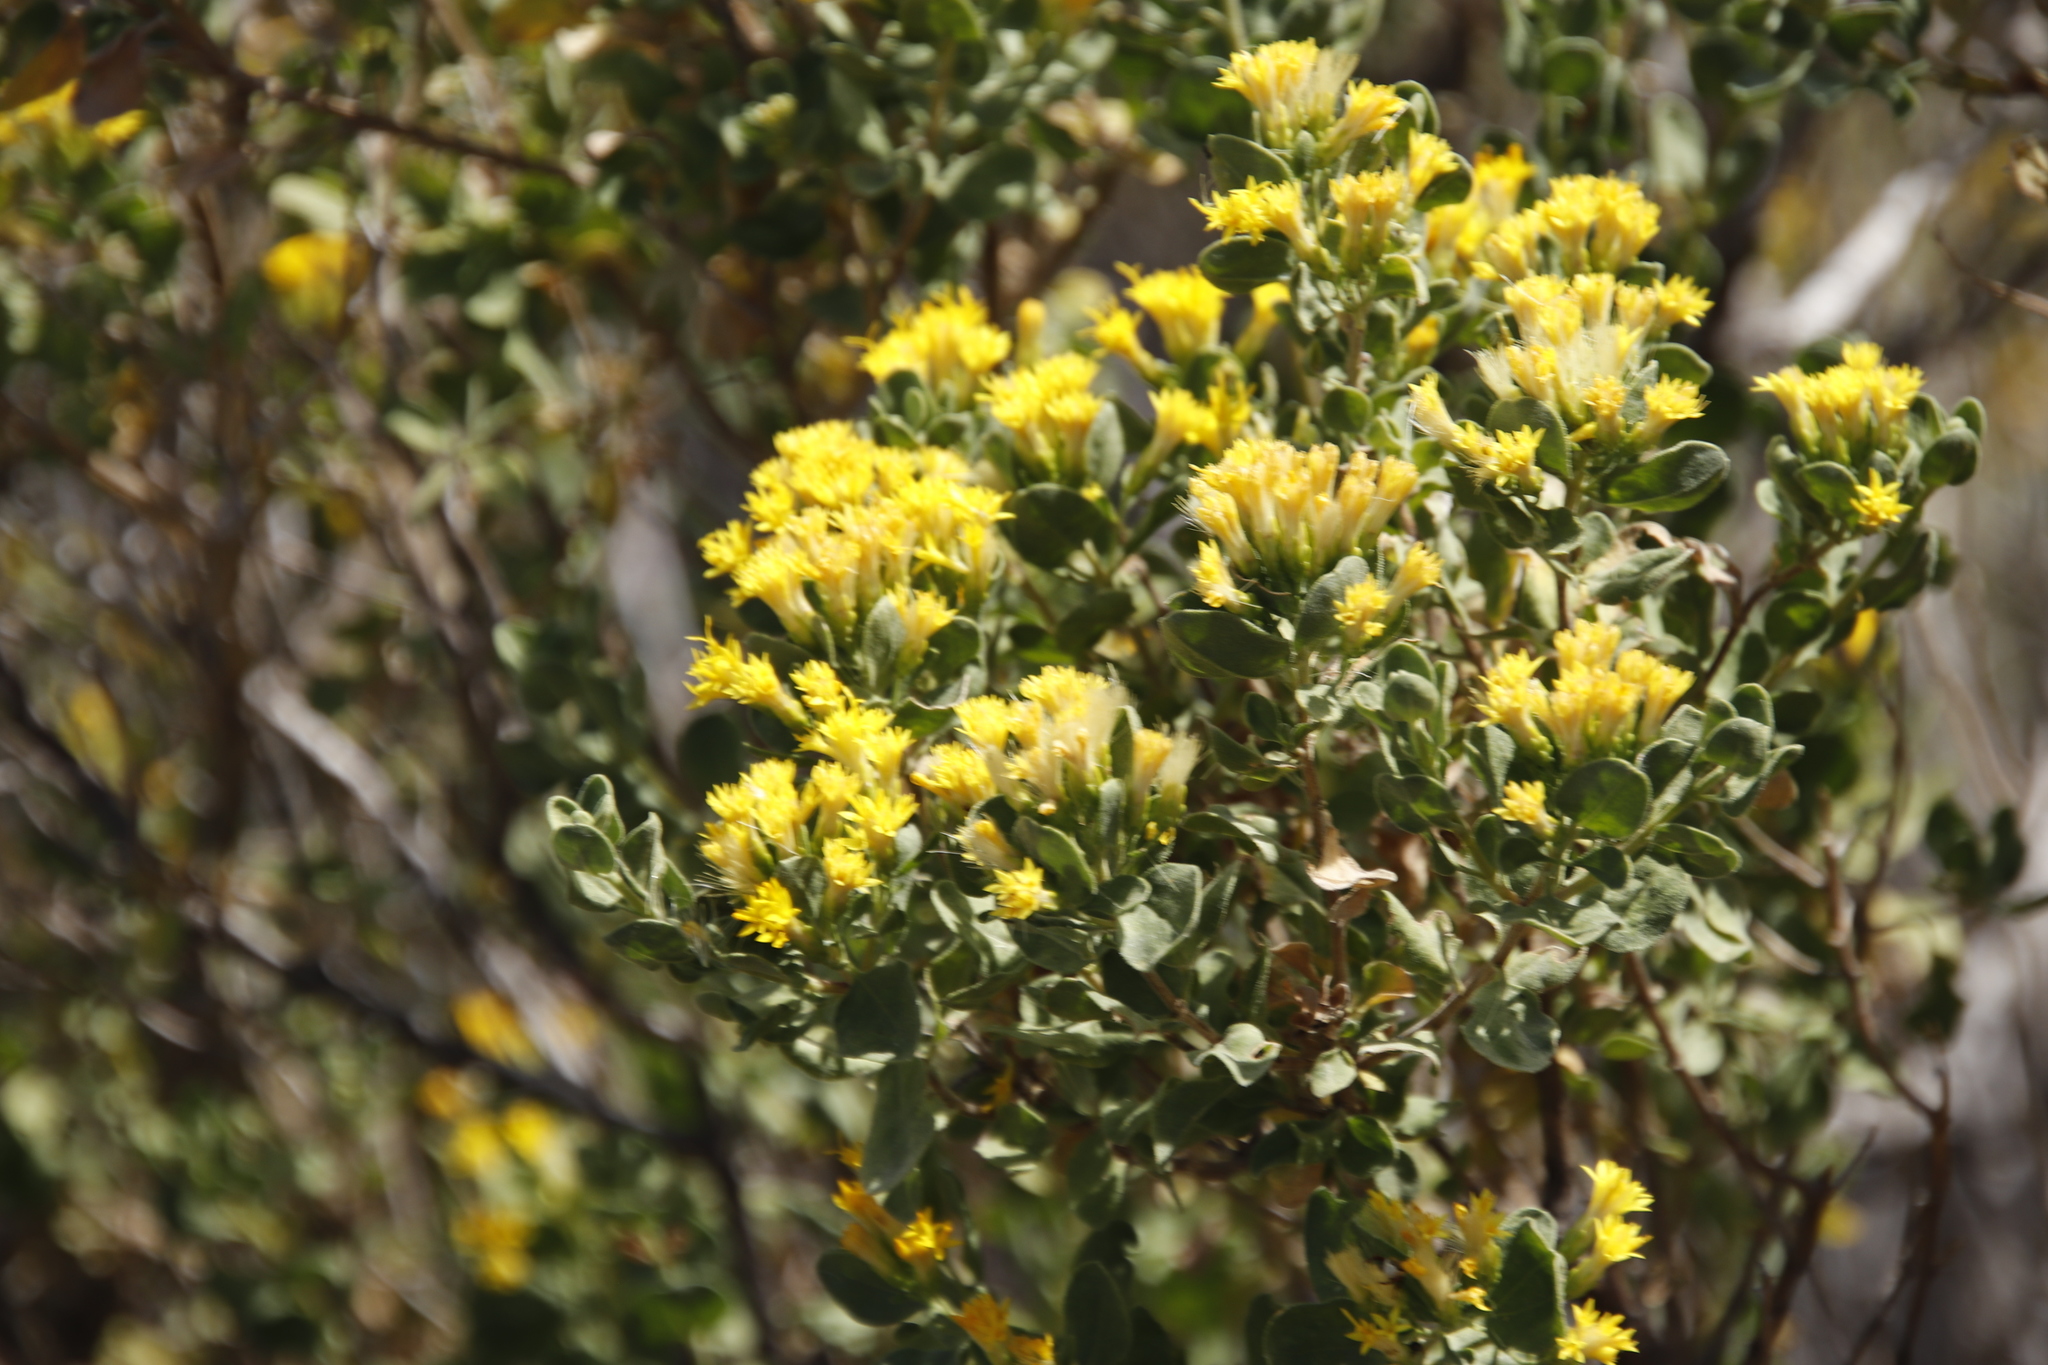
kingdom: Plantae
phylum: Tracheophyta
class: Magnoliopsida
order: Asterales
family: Asteraceae
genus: Pteronia
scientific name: Pteronia divaricata
